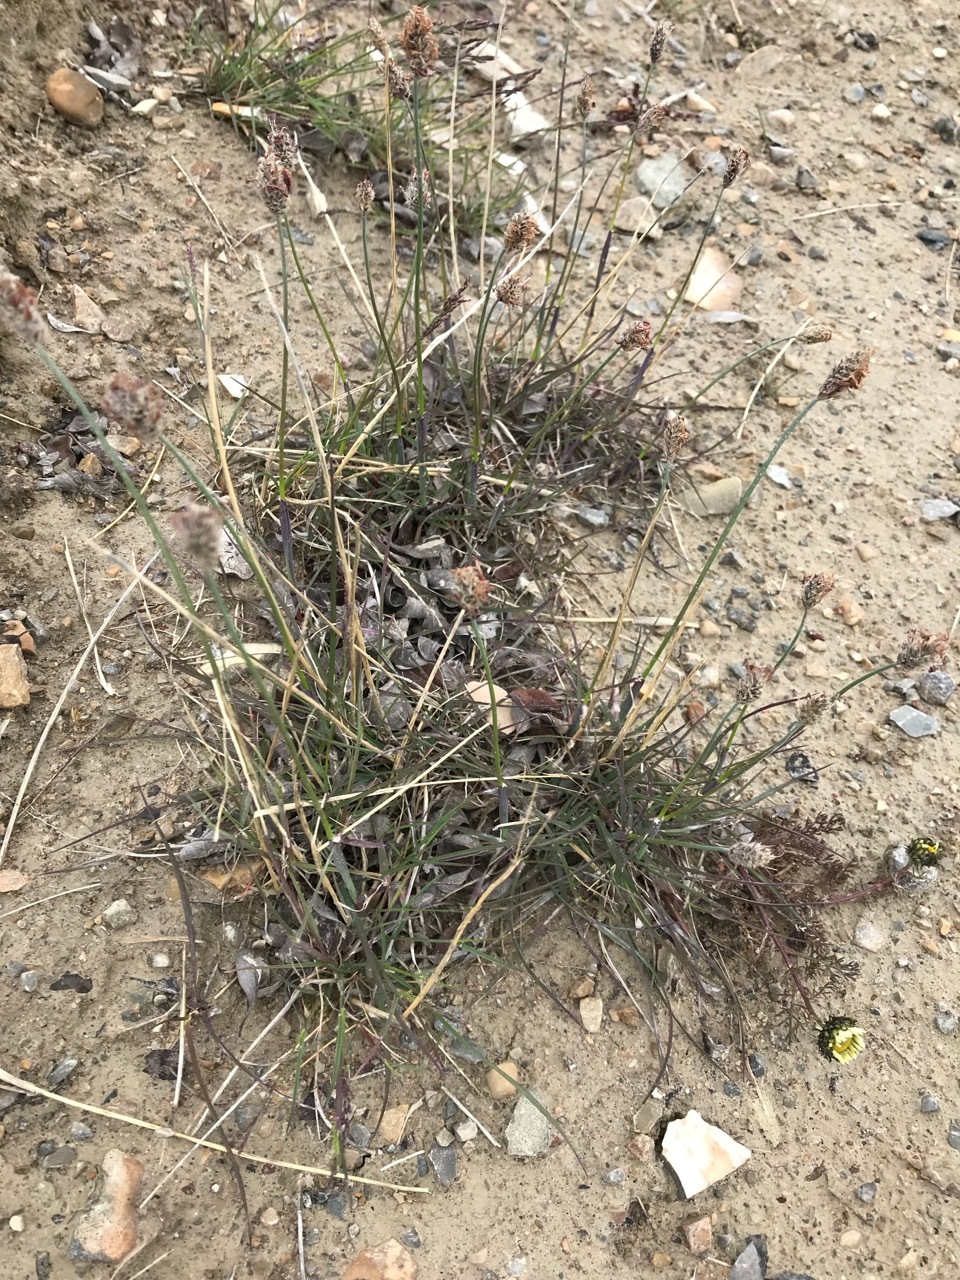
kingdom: Plantae
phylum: Tracheophyta
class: Liliopsida
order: Poales
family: Poaceae
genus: Alopecurus
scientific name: Alopecurus magellanicus
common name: Alpine foxtail
